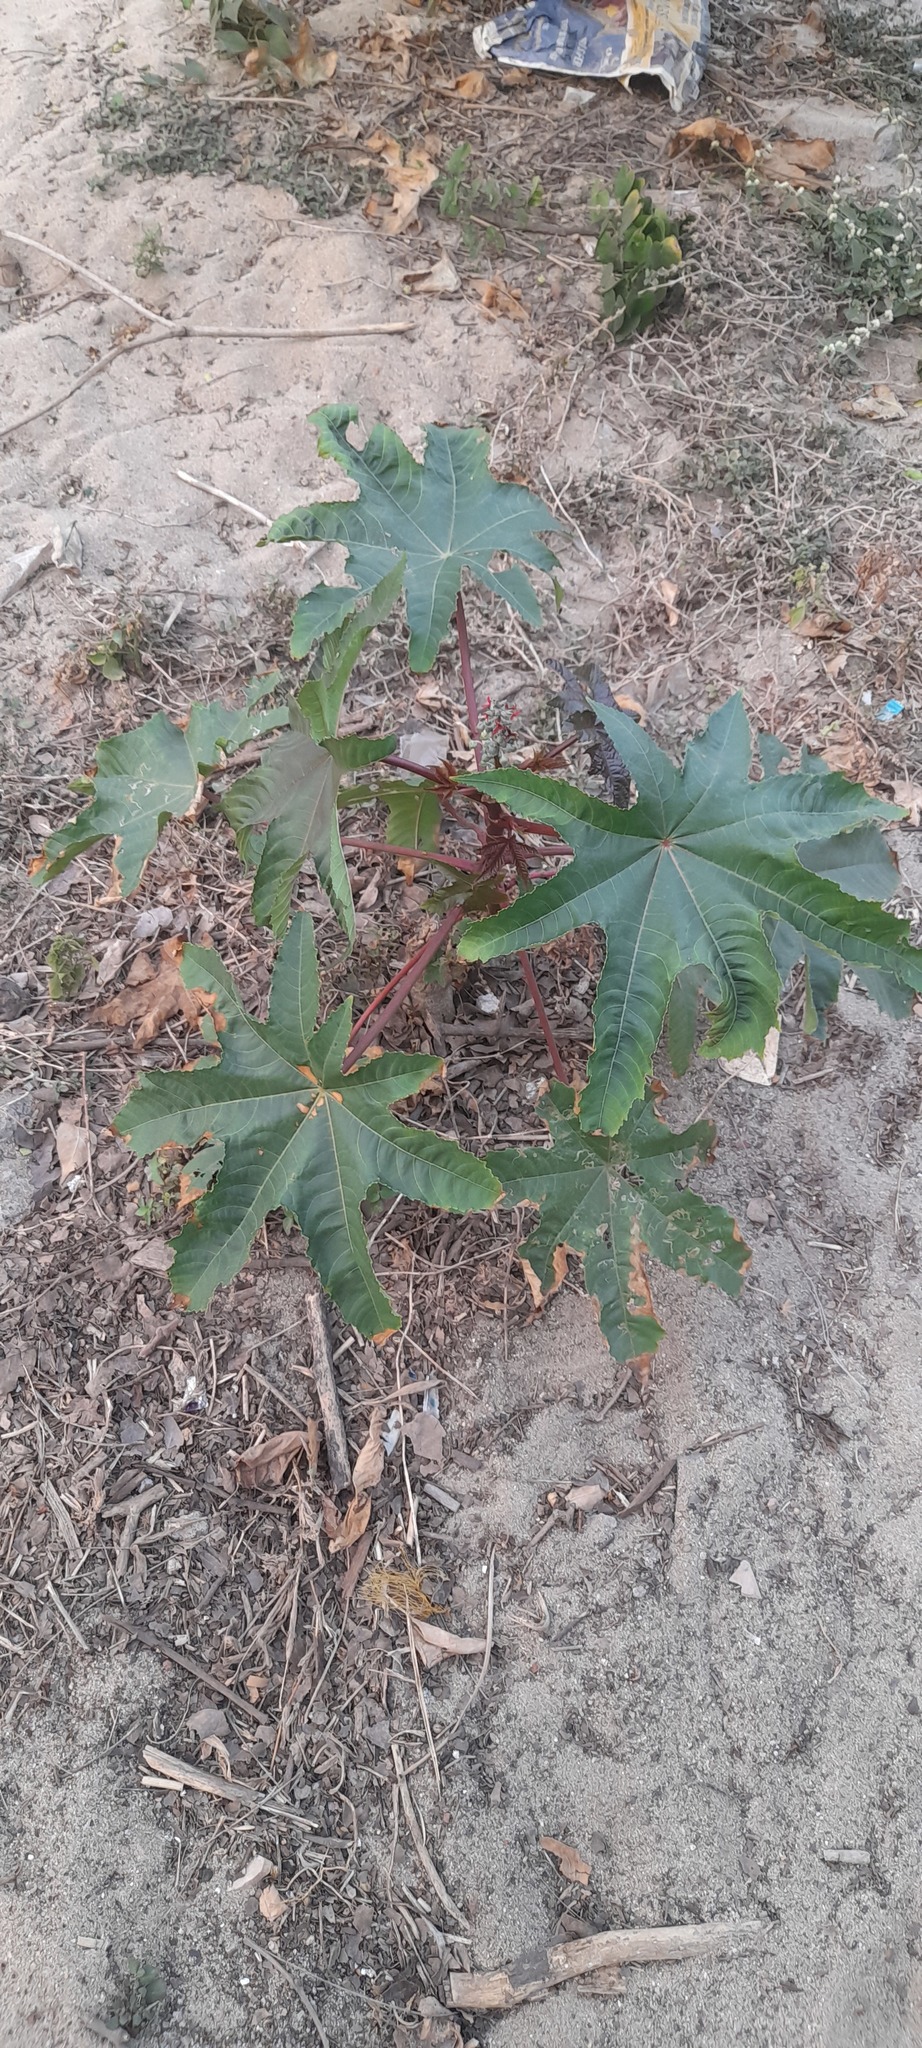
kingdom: Plantae
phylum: Tracheophyta
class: Magnoliopsida
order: Malpighiales
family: Euphorbiaceae
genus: Ricinus
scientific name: Ricinus communis
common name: Castor-oil-plant
